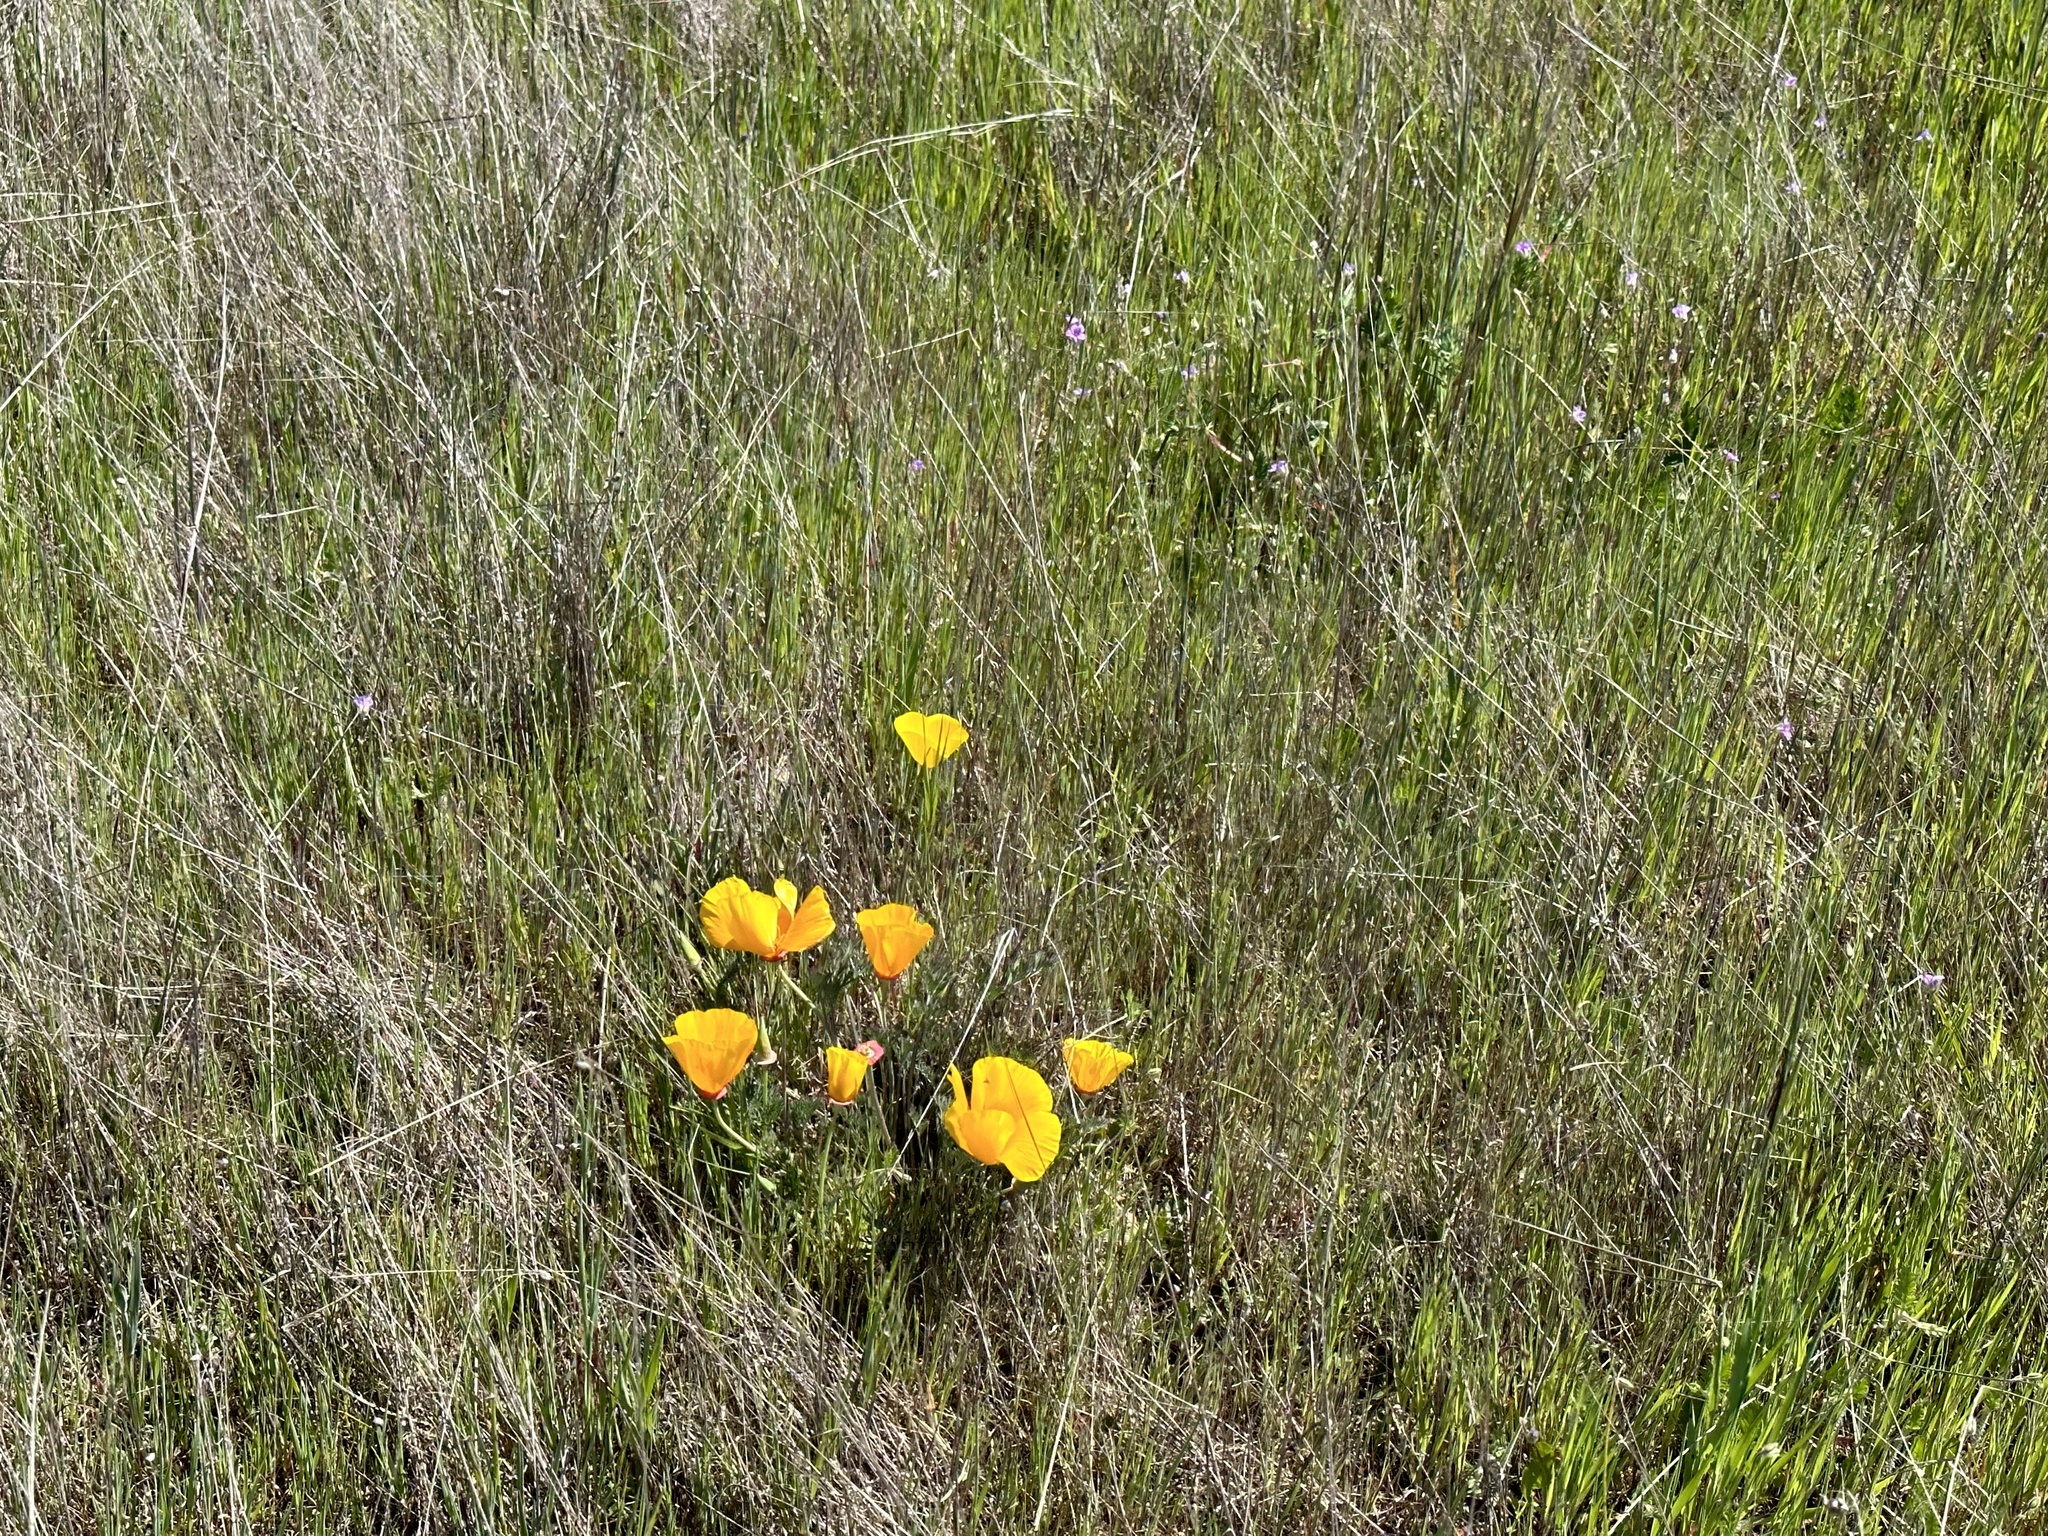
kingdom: Plantae
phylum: Tracheophyta
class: Magnoliopsida
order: Ranunculales
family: Papaveraceae
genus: Eschscholzia
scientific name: Eschscholzia californica
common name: California poppy
